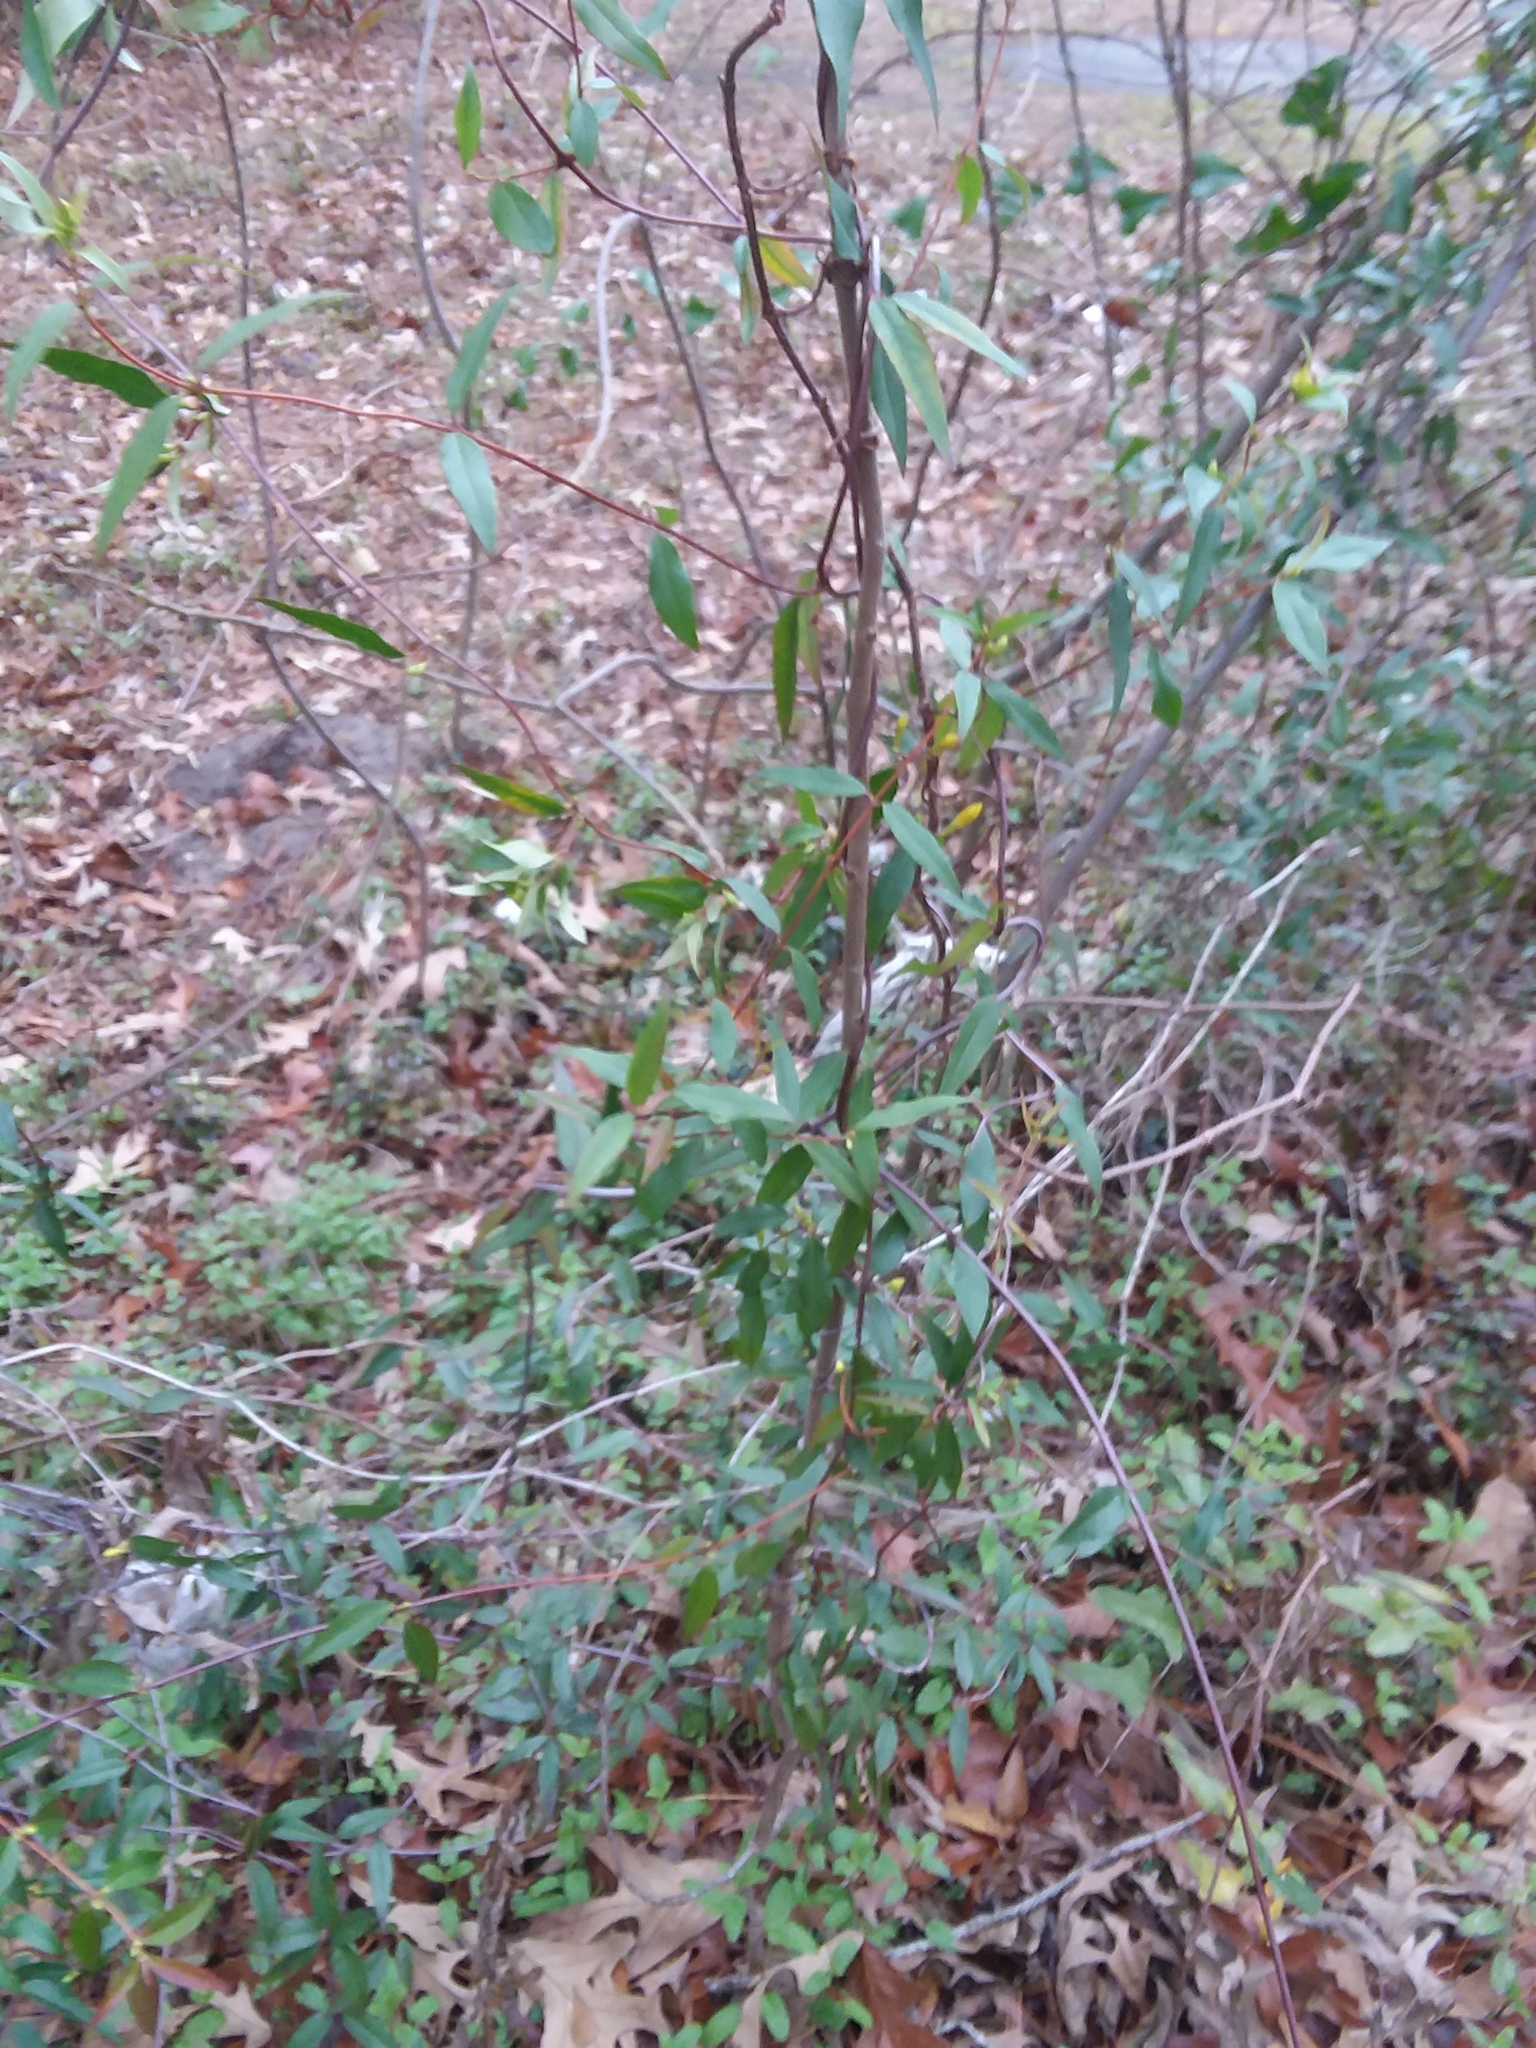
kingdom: Plantae
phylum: Tracheophyta
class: Magnoliopsida
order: Gentianales
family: Gelsemiaceae
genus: Gelsemium
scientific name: Gelsemium sempervirens
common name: Carolina-jasmine
